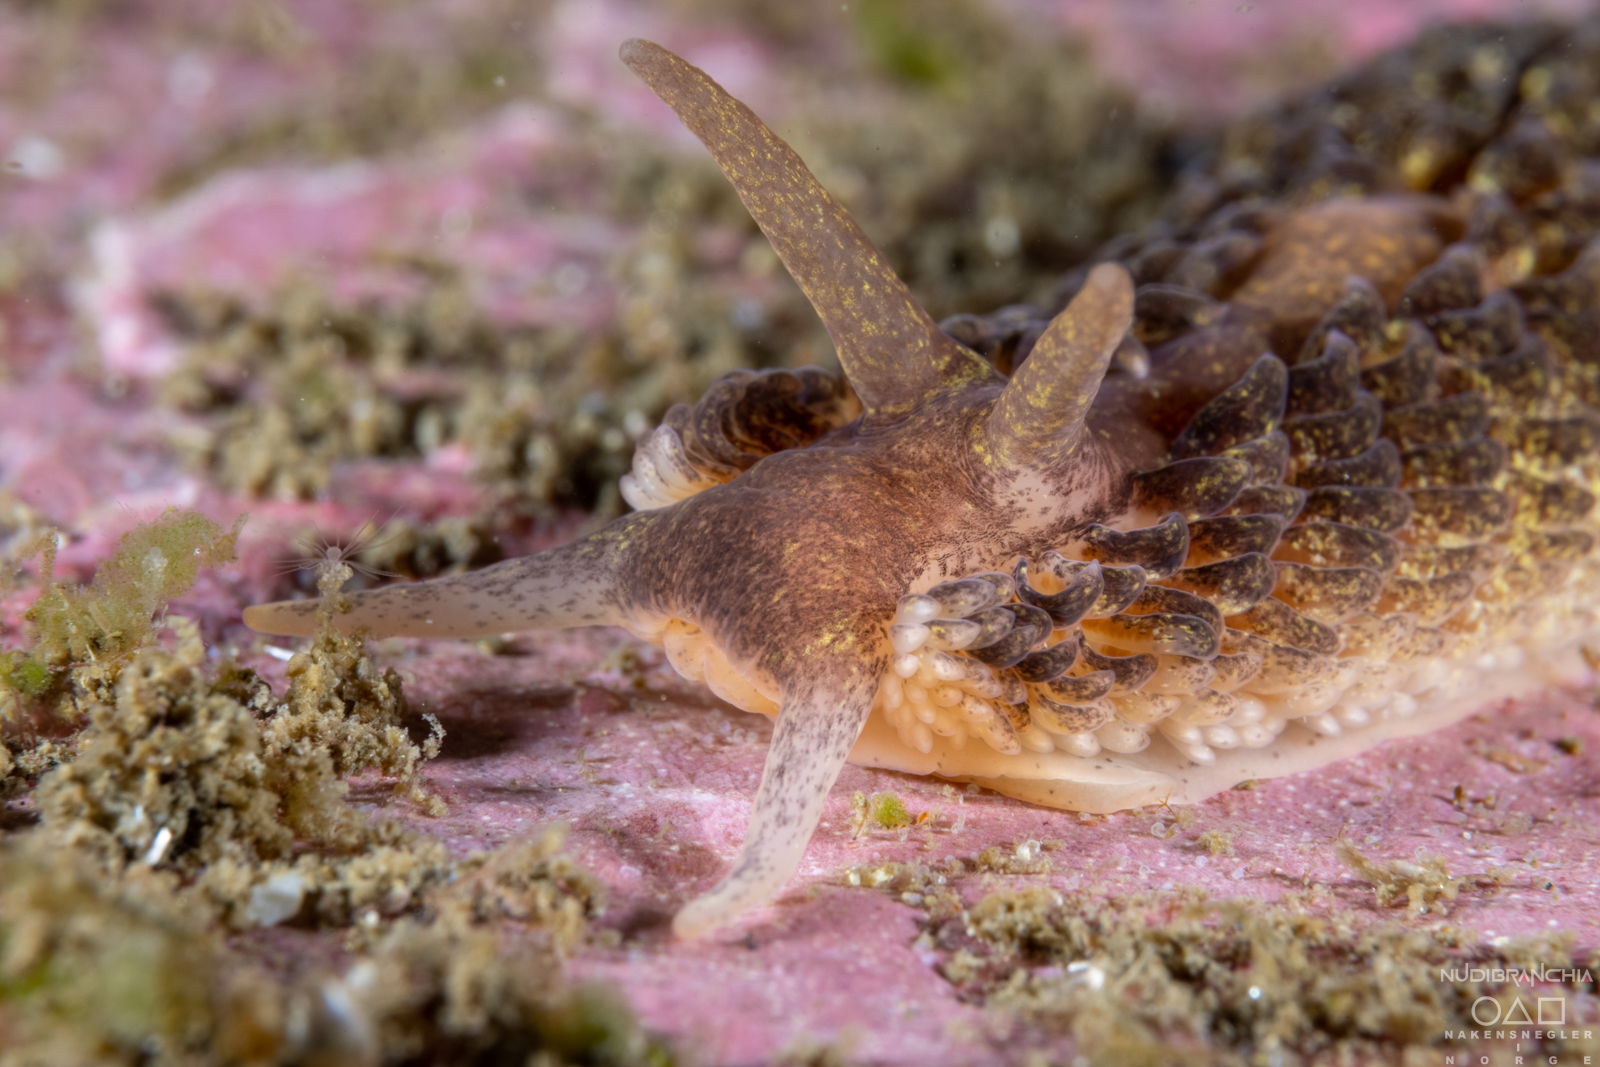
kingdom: Animalia
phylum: Mollusca
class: Gastropoda
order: Nudibranchia
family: Aeolidiidae
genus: Aeolidia
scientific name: Aeolidia papillosa
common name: Common grey sea slug
